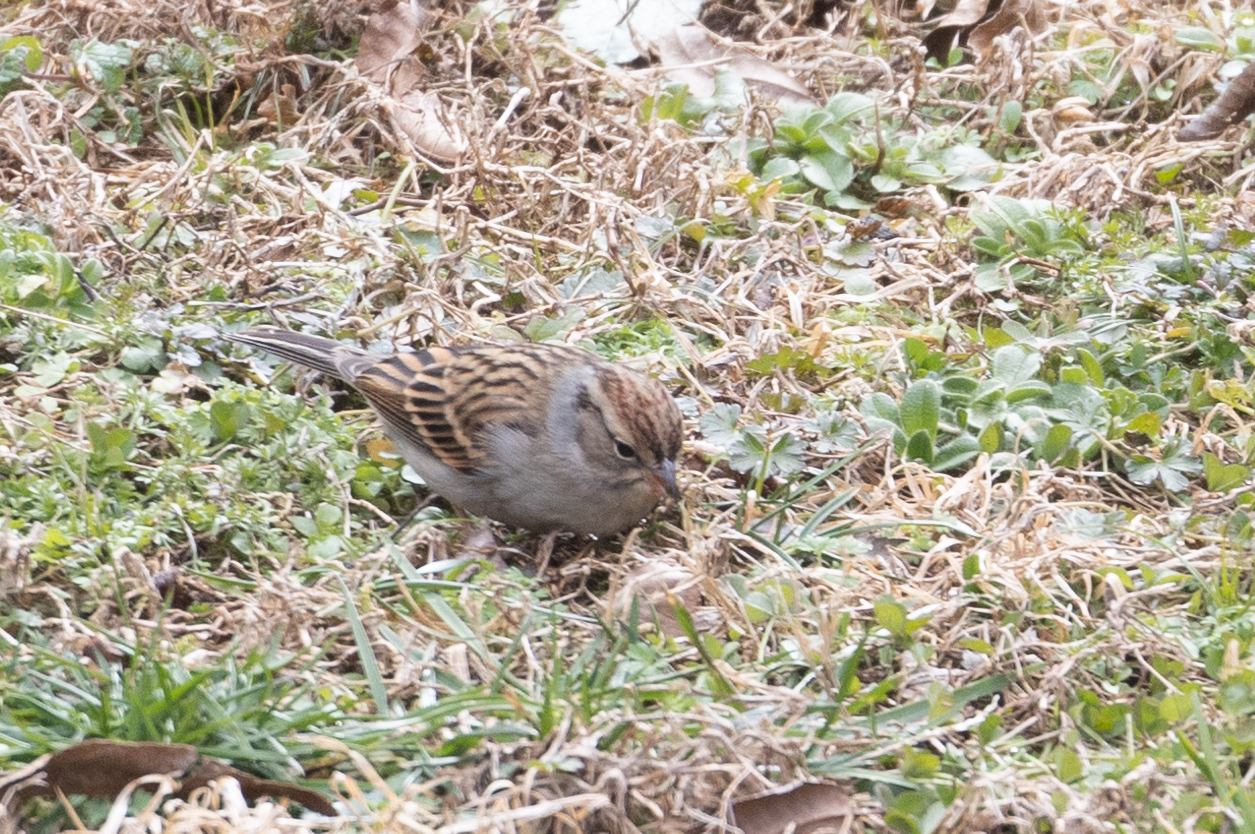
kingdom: Animalia
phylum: Chordata
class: Aves
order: Passeriformes
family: Passerellidae
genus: Spizella
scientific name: Spizella passerina
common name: Chipping sparrow
